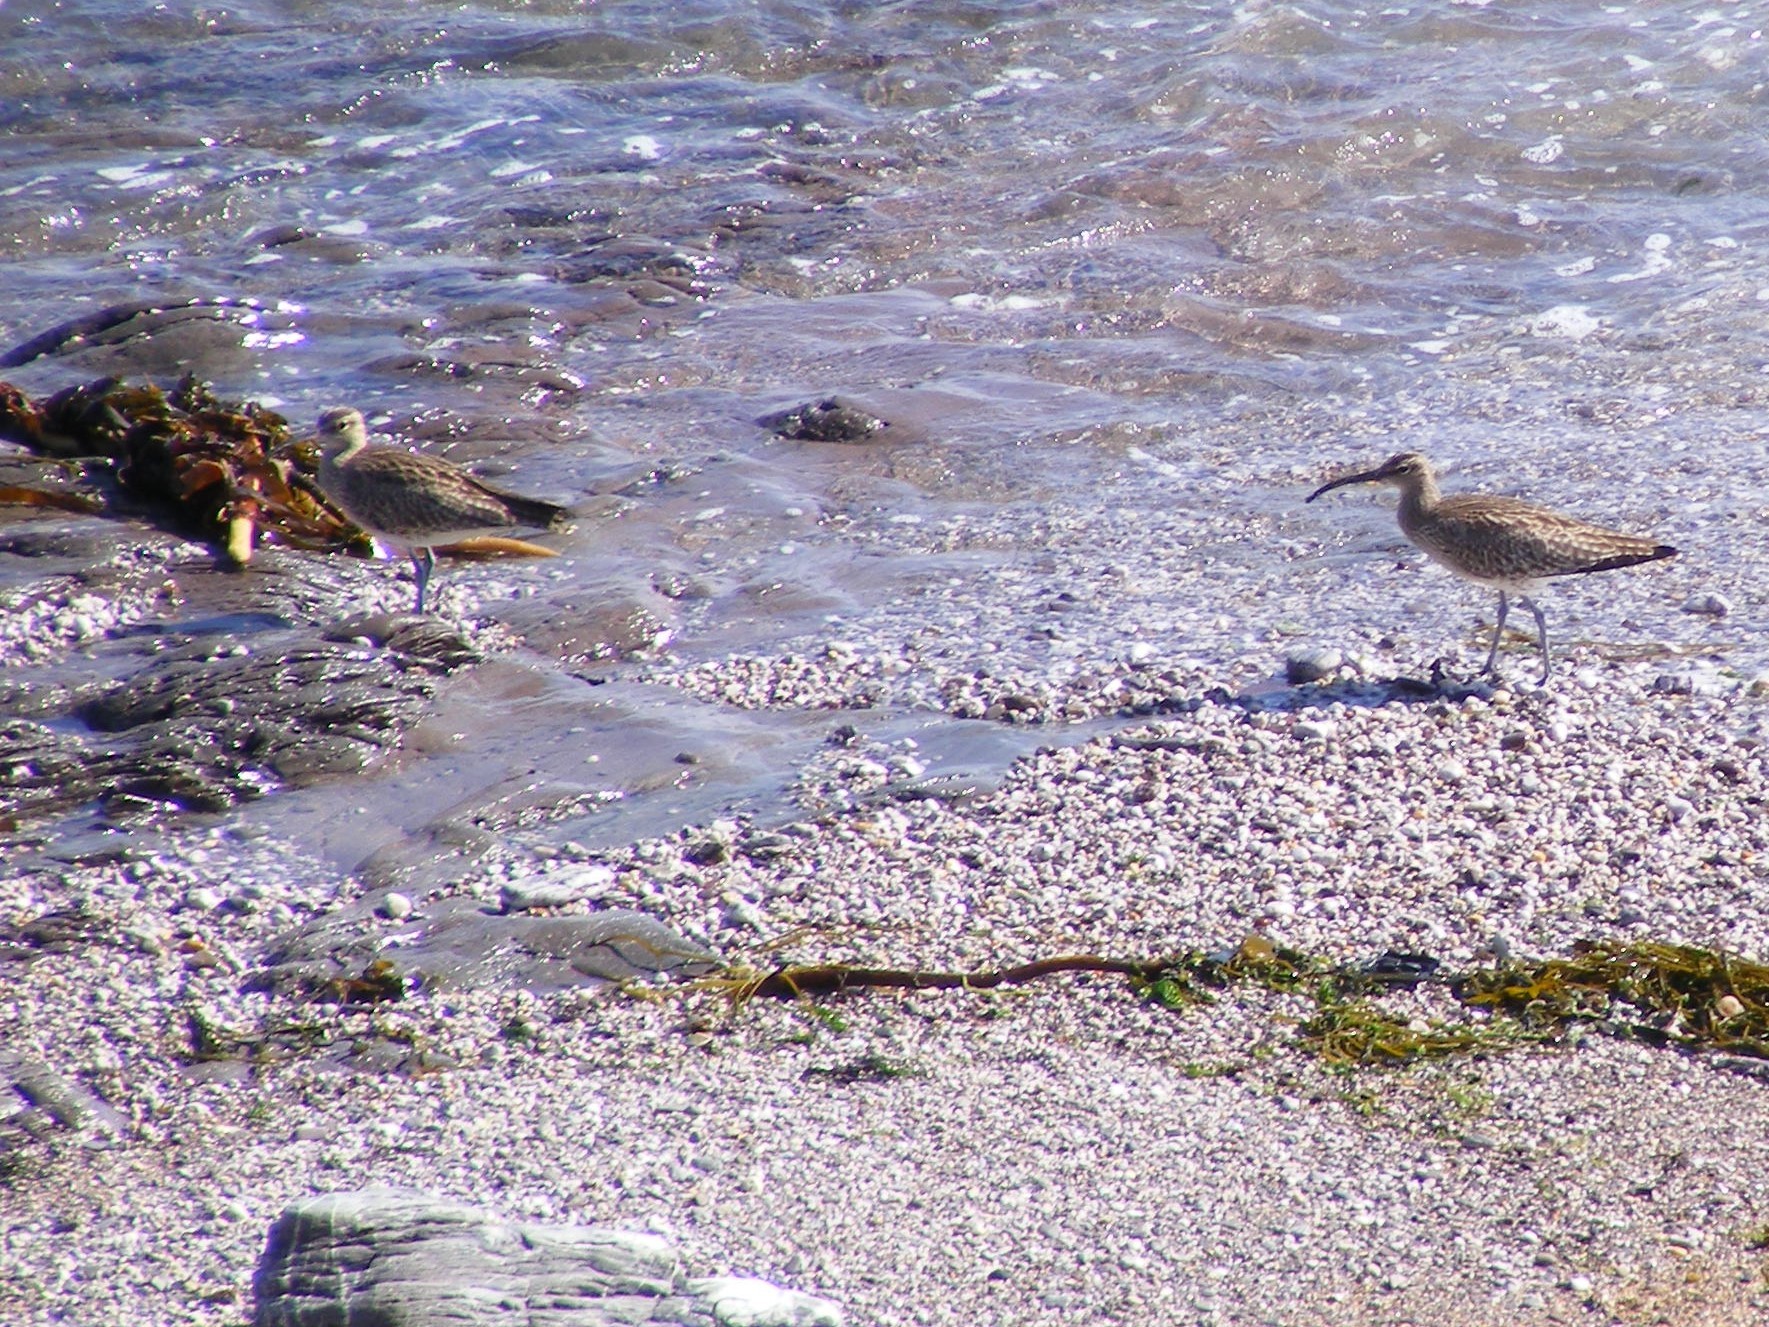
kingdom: Animalia
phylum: Chordata
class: Aves
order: Charadriiformes
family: Scolopacidae
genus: Numenius
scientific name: Numenius phaeopus
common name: Whimbrel
